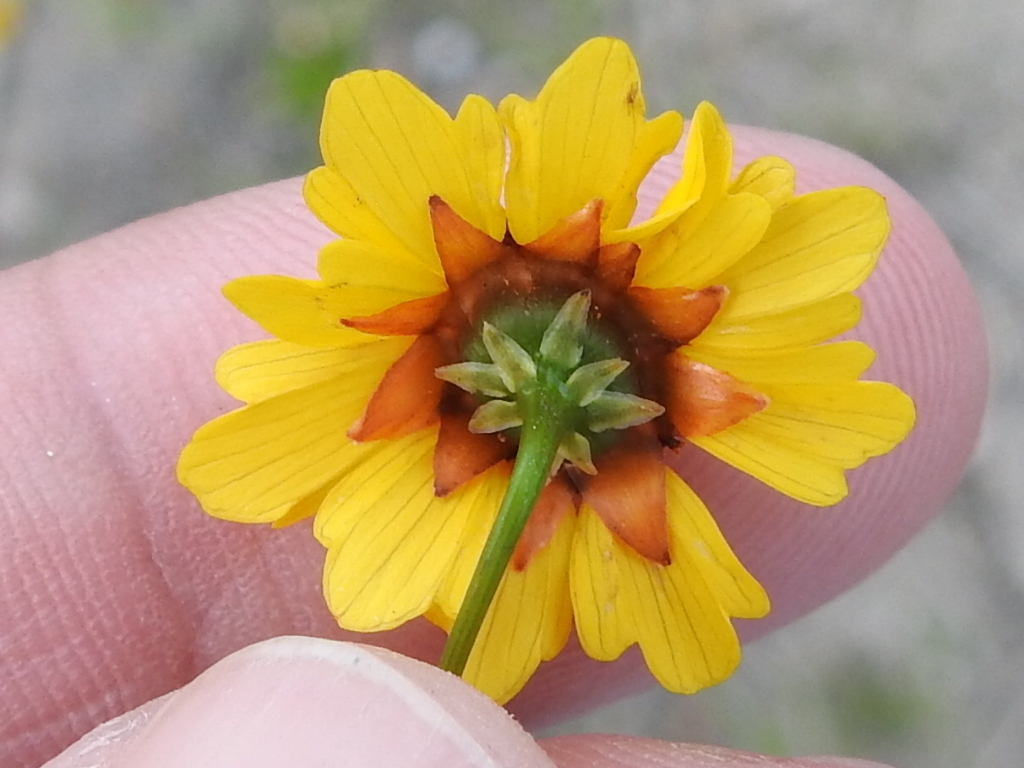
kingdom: Plantae
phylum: Tracheophyta
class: Magnoliopsida
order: Asterales
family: Asteraceae
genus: Coreopsis
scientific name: Coreopsis tinctoria
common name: Garden tickseed
